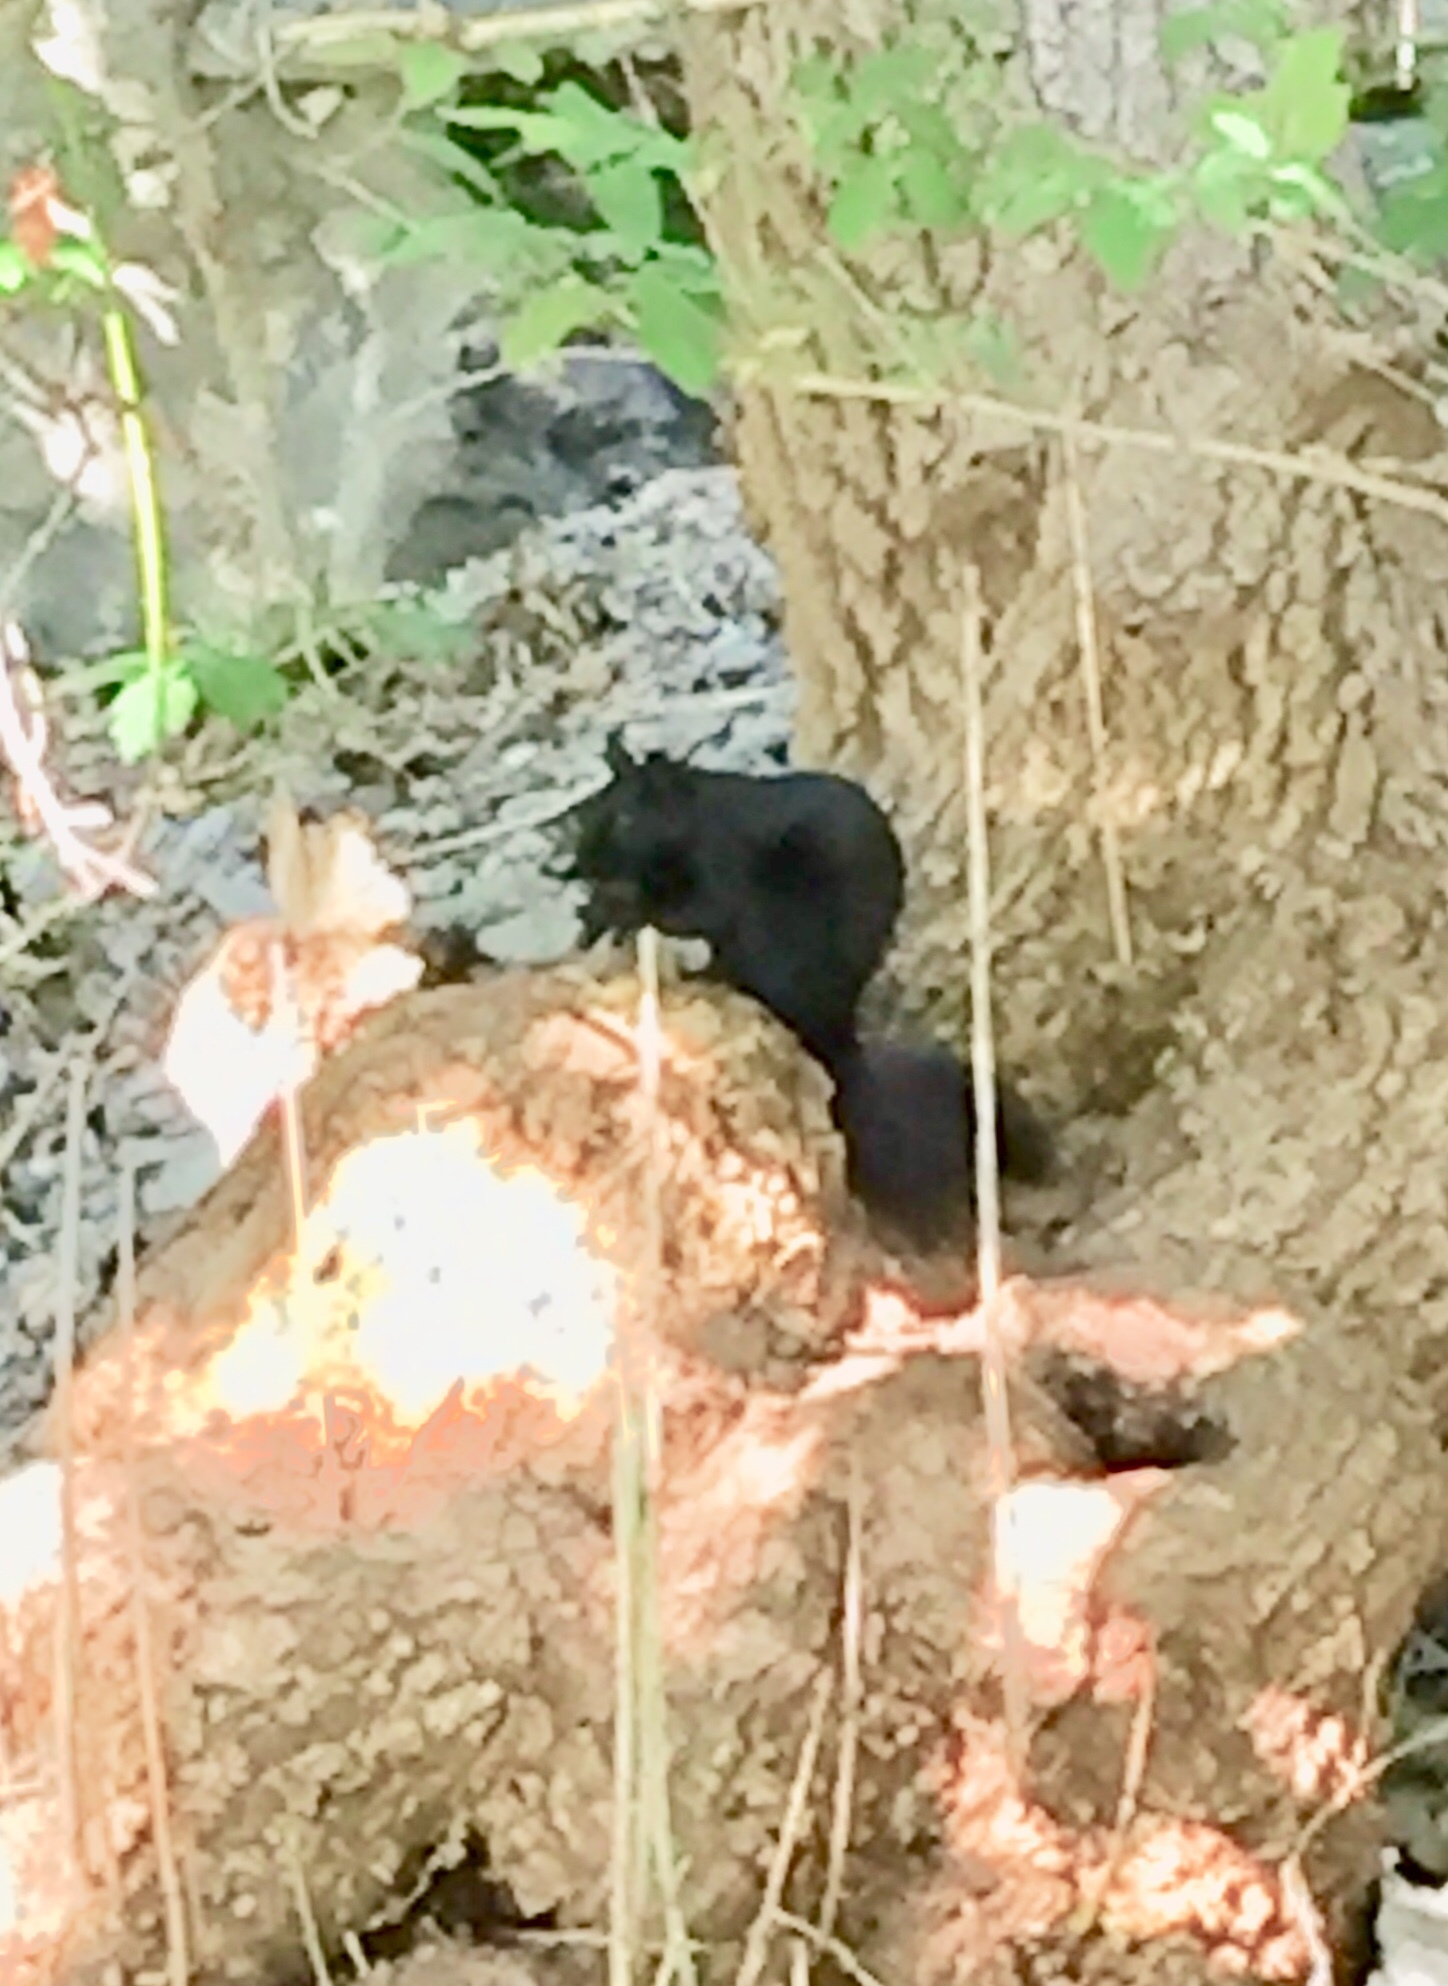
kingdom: Animalia
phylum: Chordata
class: Mammalia
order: Rodentia
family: Sciuridae
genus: Sciurus
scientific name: Sciurus carolinensis
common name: Eastern gray squirrel
